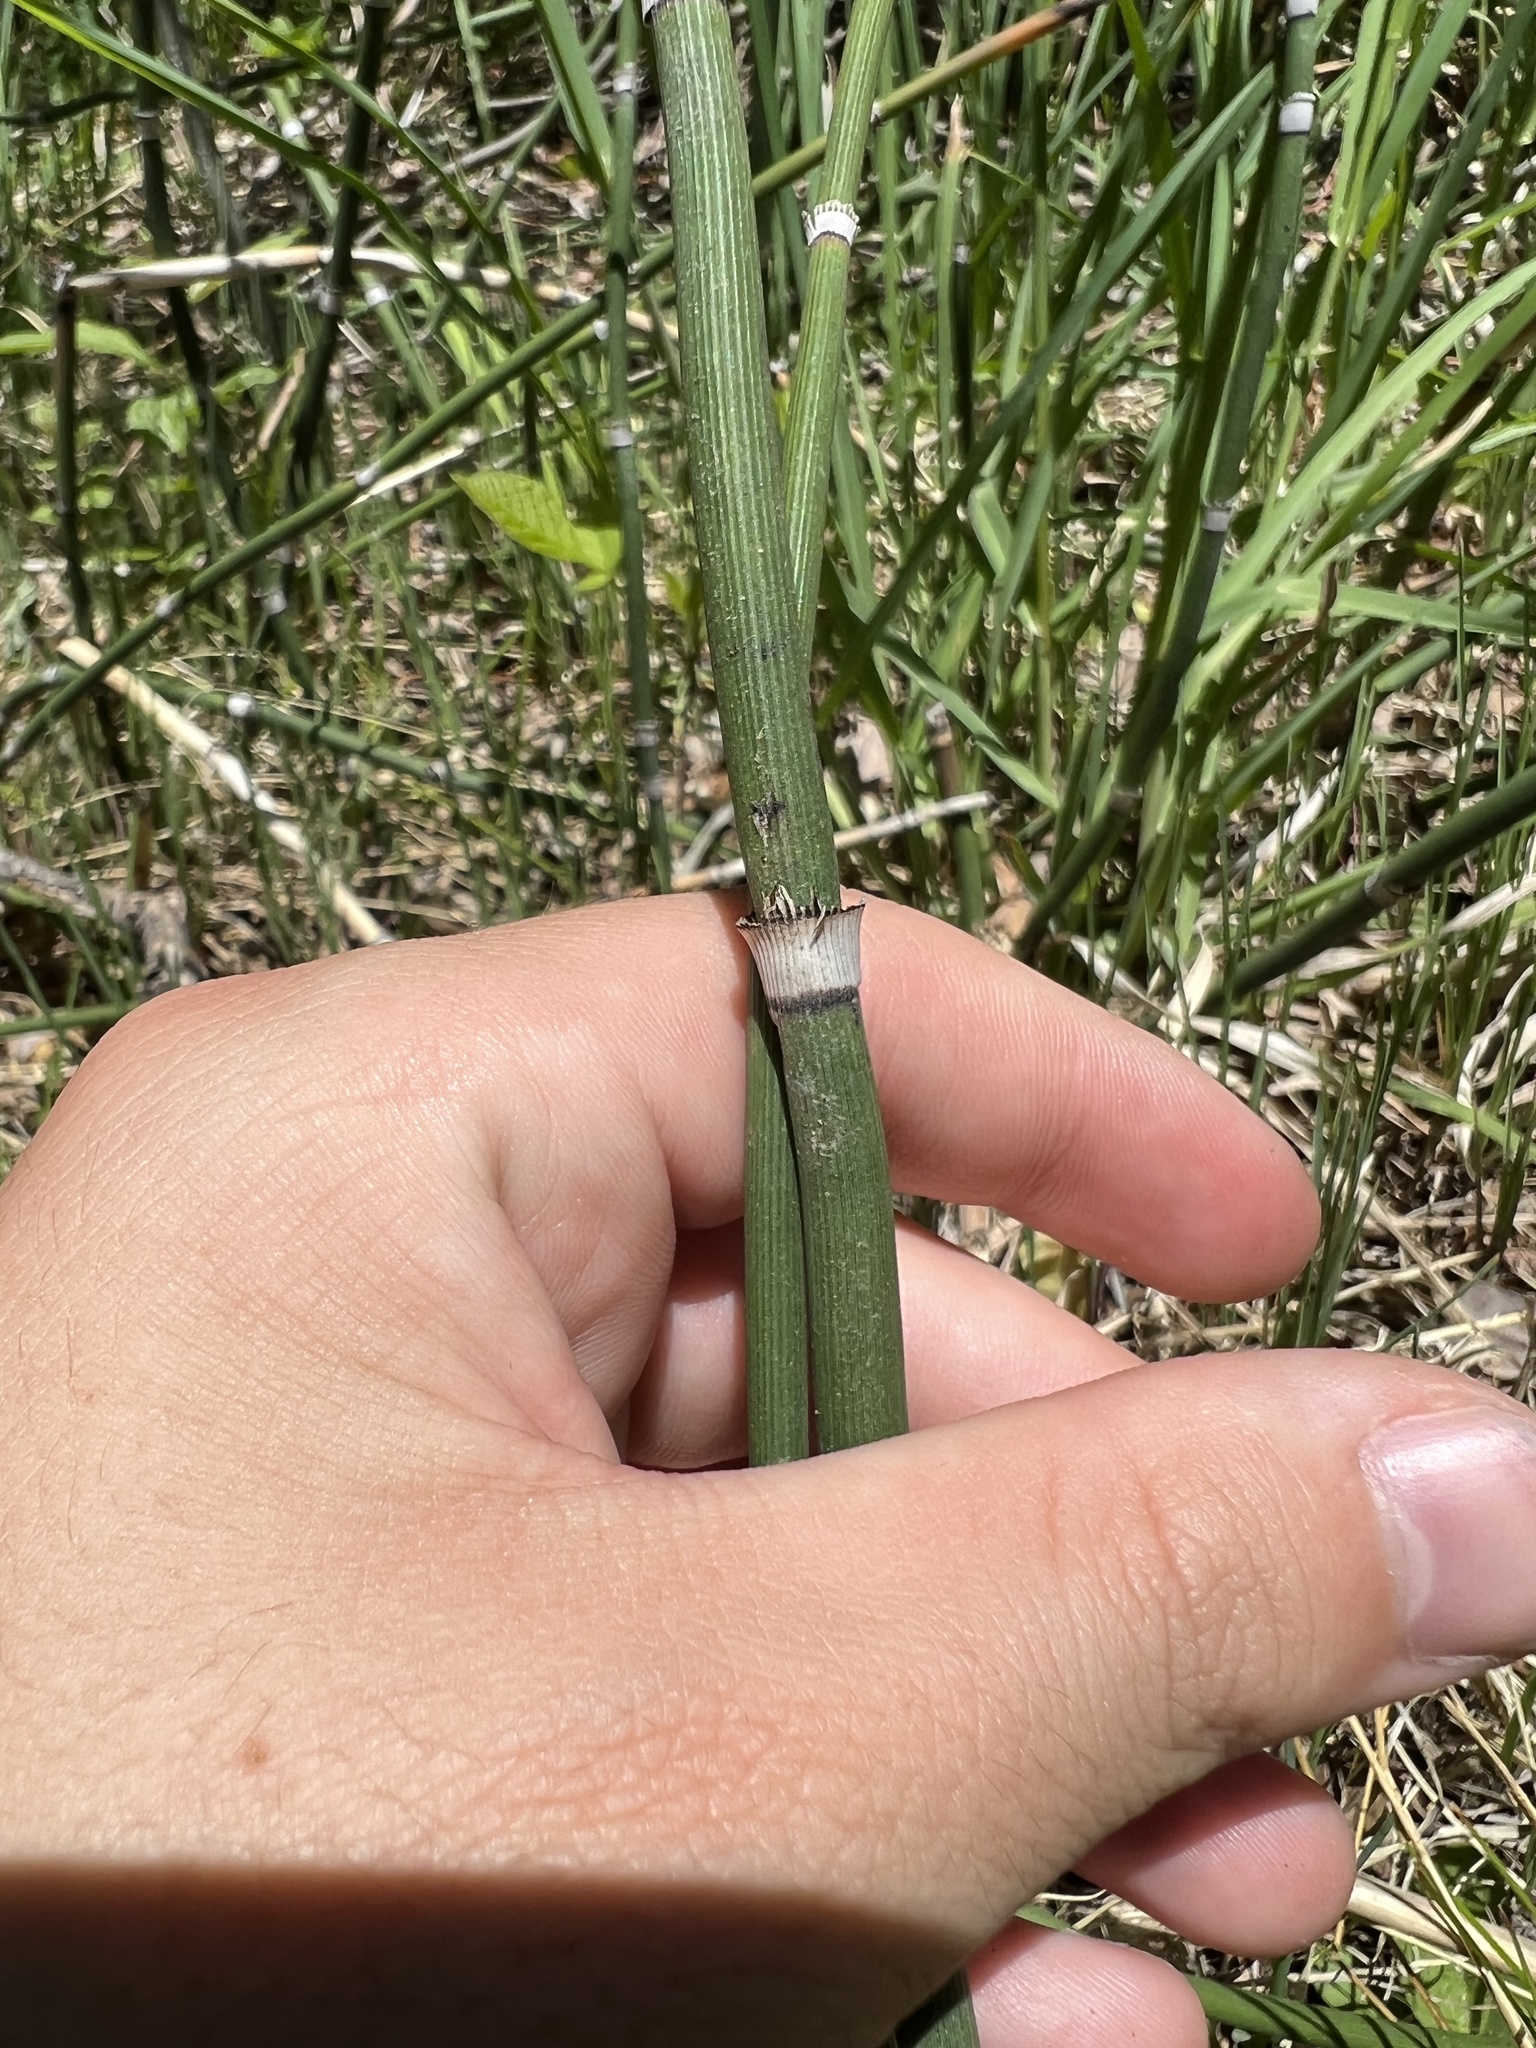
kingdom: Plantae
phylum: Tracheophyta
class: Polypodiopsida
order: Equisetales
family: Equisetaceae
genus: Equisetum
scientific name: Equisetum hyemale
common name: Rough horsetail
